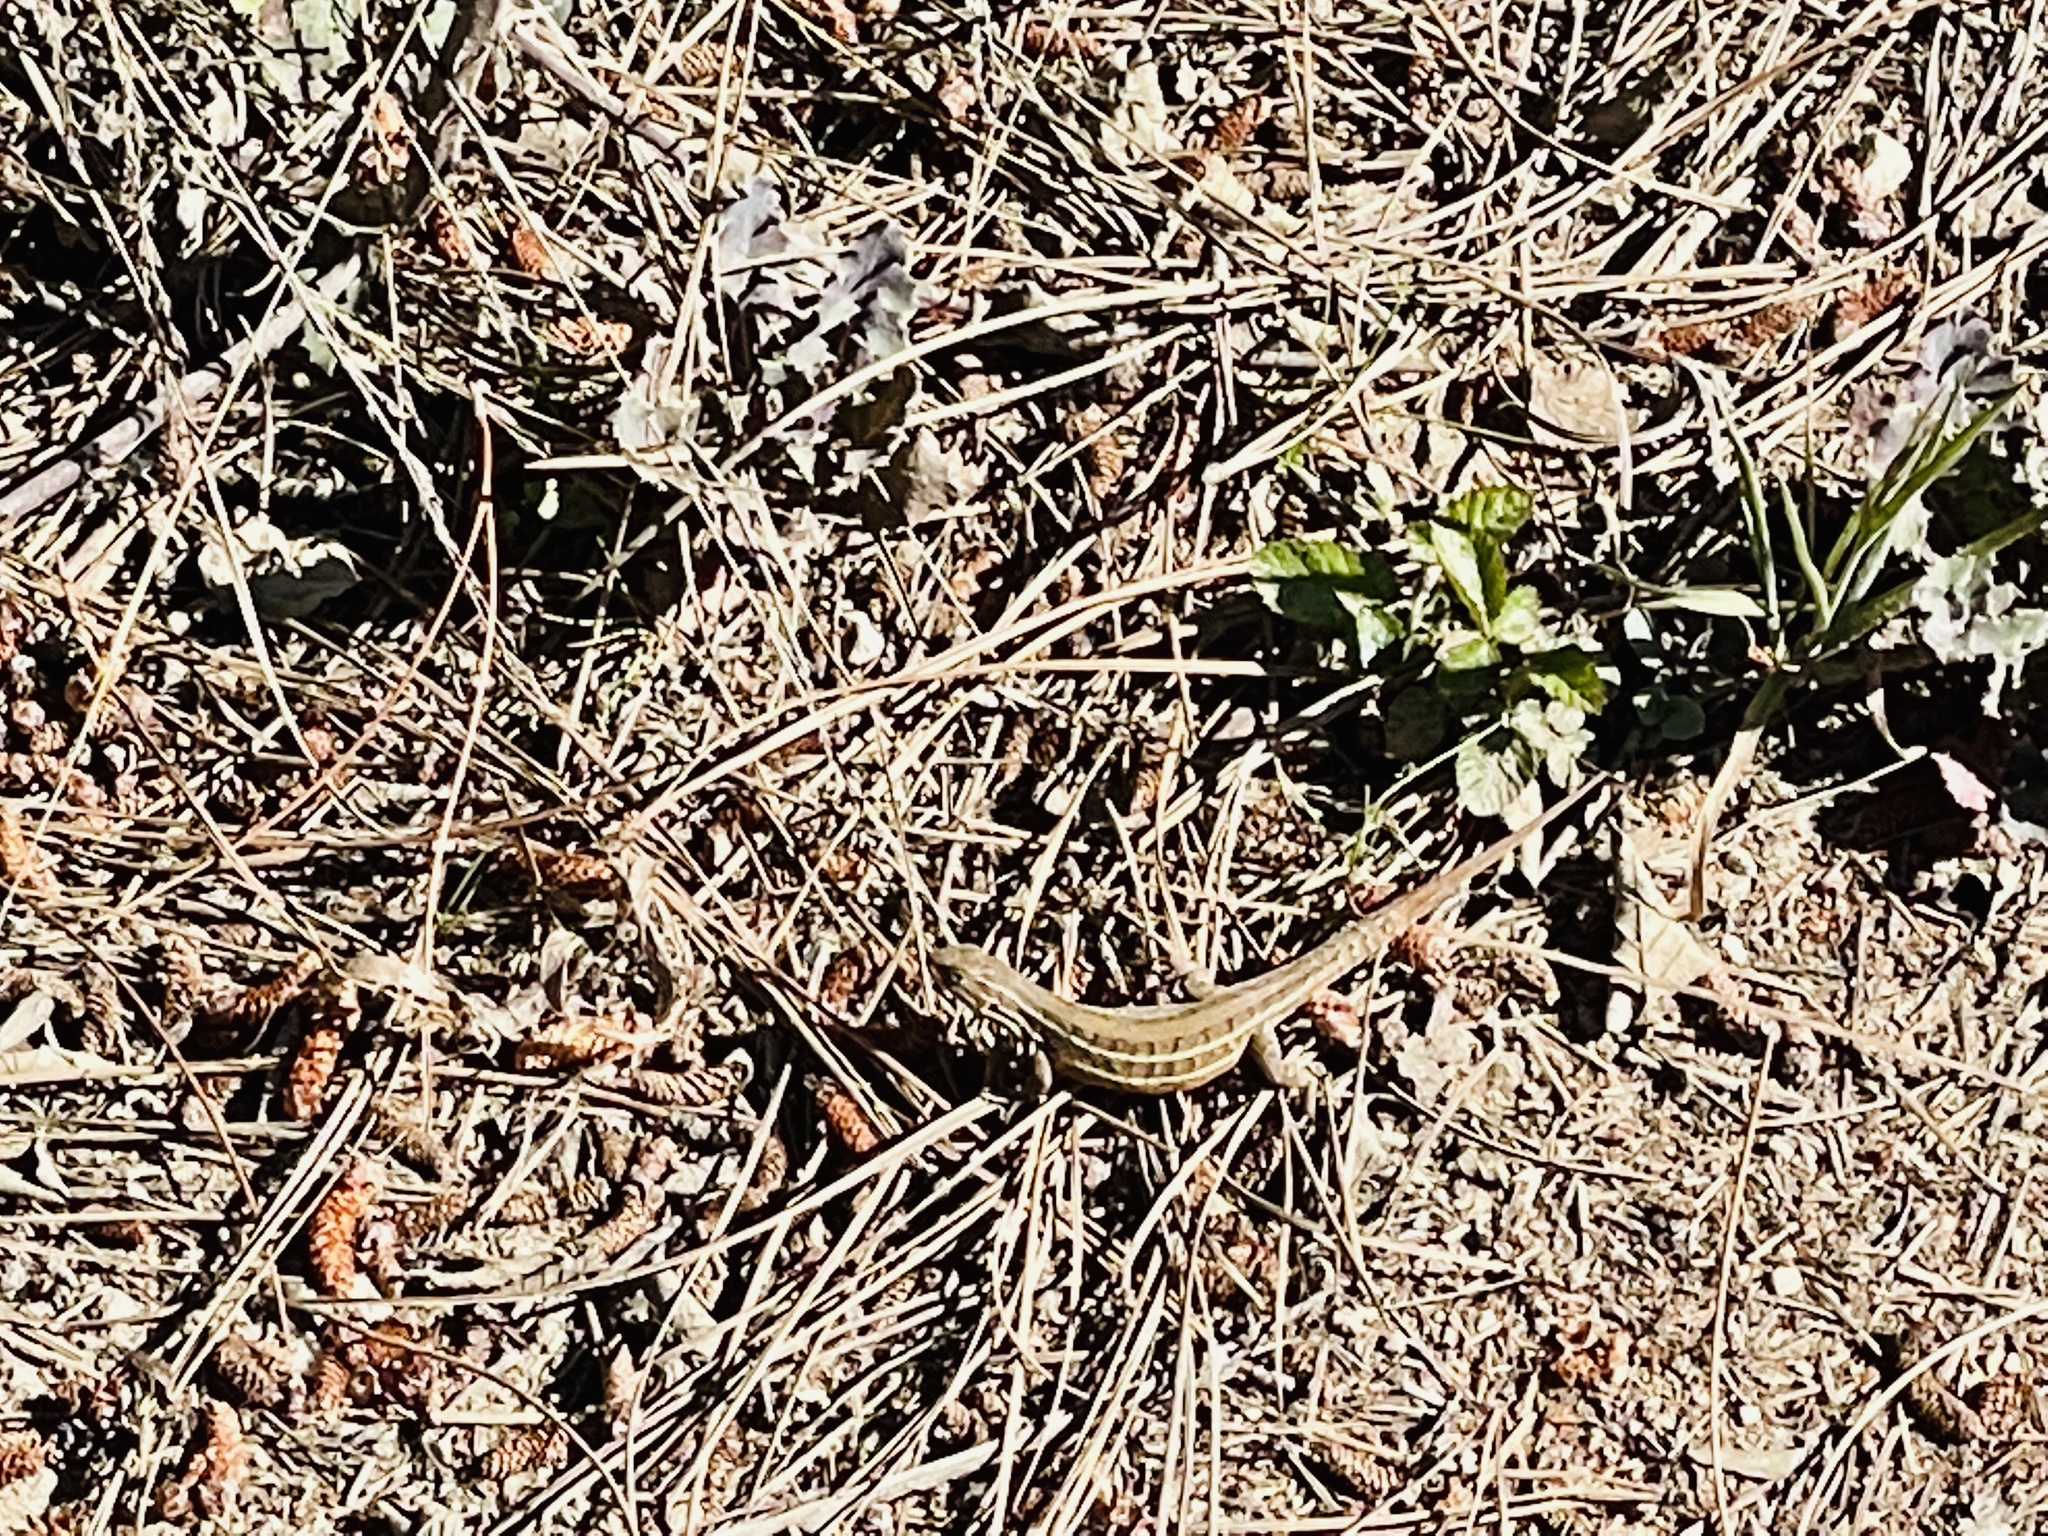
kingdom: Animalia
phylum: Chordata
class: Squamata
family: Liolaemidae
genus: Liolaemus
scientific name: Liolaemus lemniscatus
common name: Wreath tree iguana
